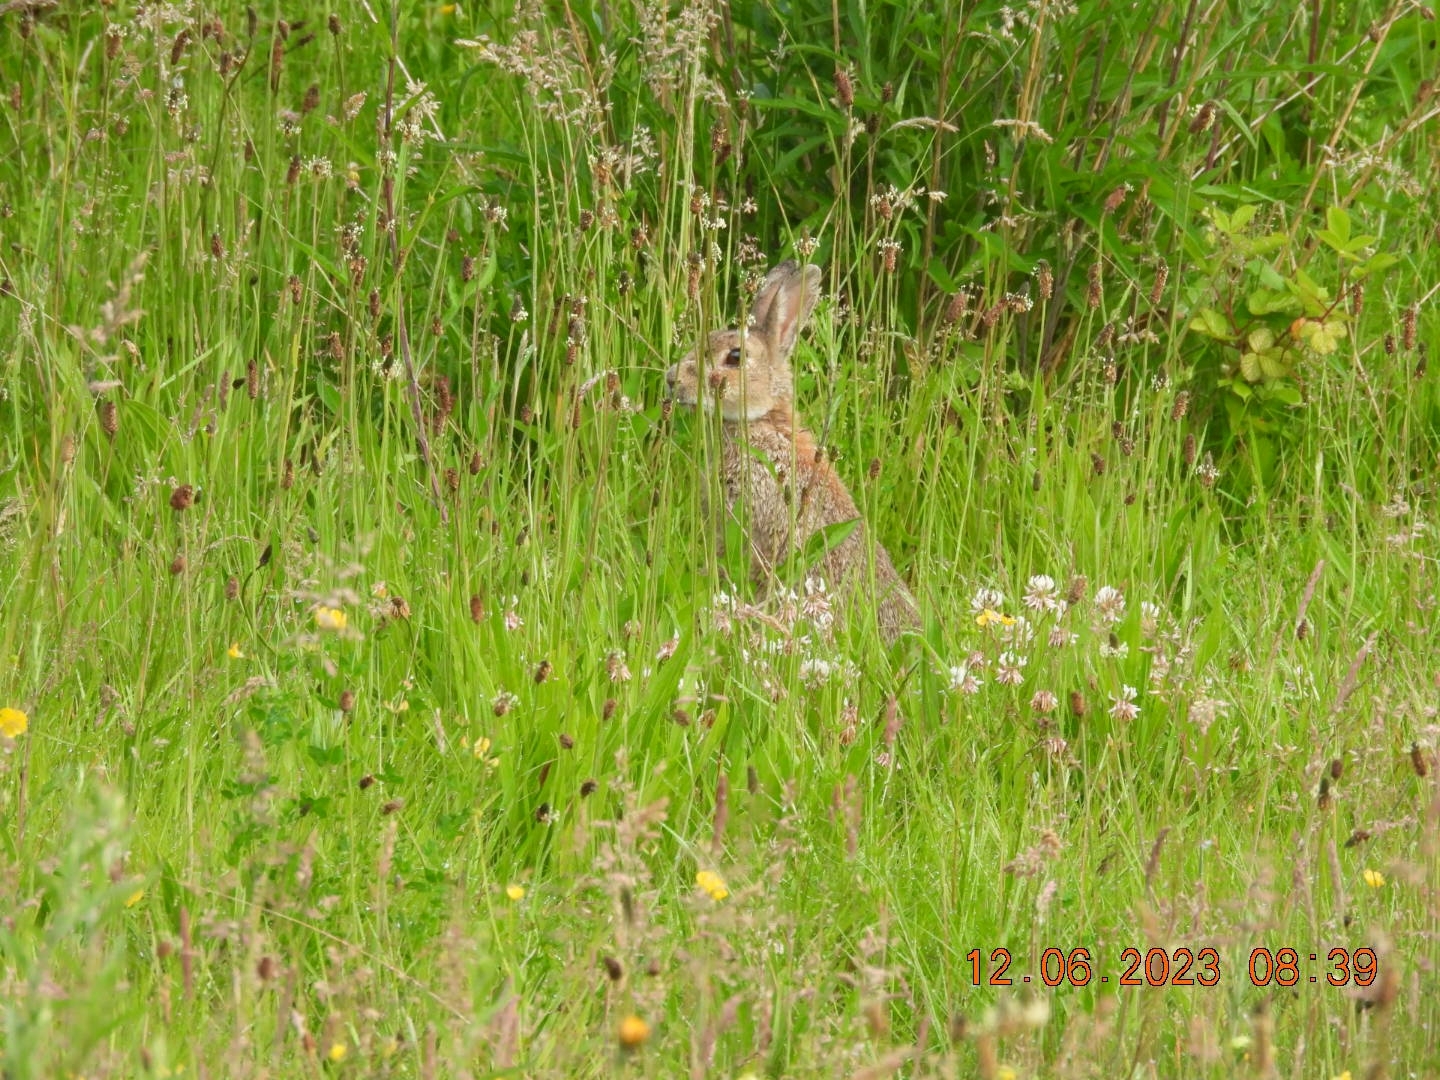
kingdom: Animalia
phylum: Chordata
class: Mammalia
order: Lagomorpha
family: Leporidae
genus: Oryctolagus
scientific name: Oryctolagus cuniculus
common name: European rabbit
